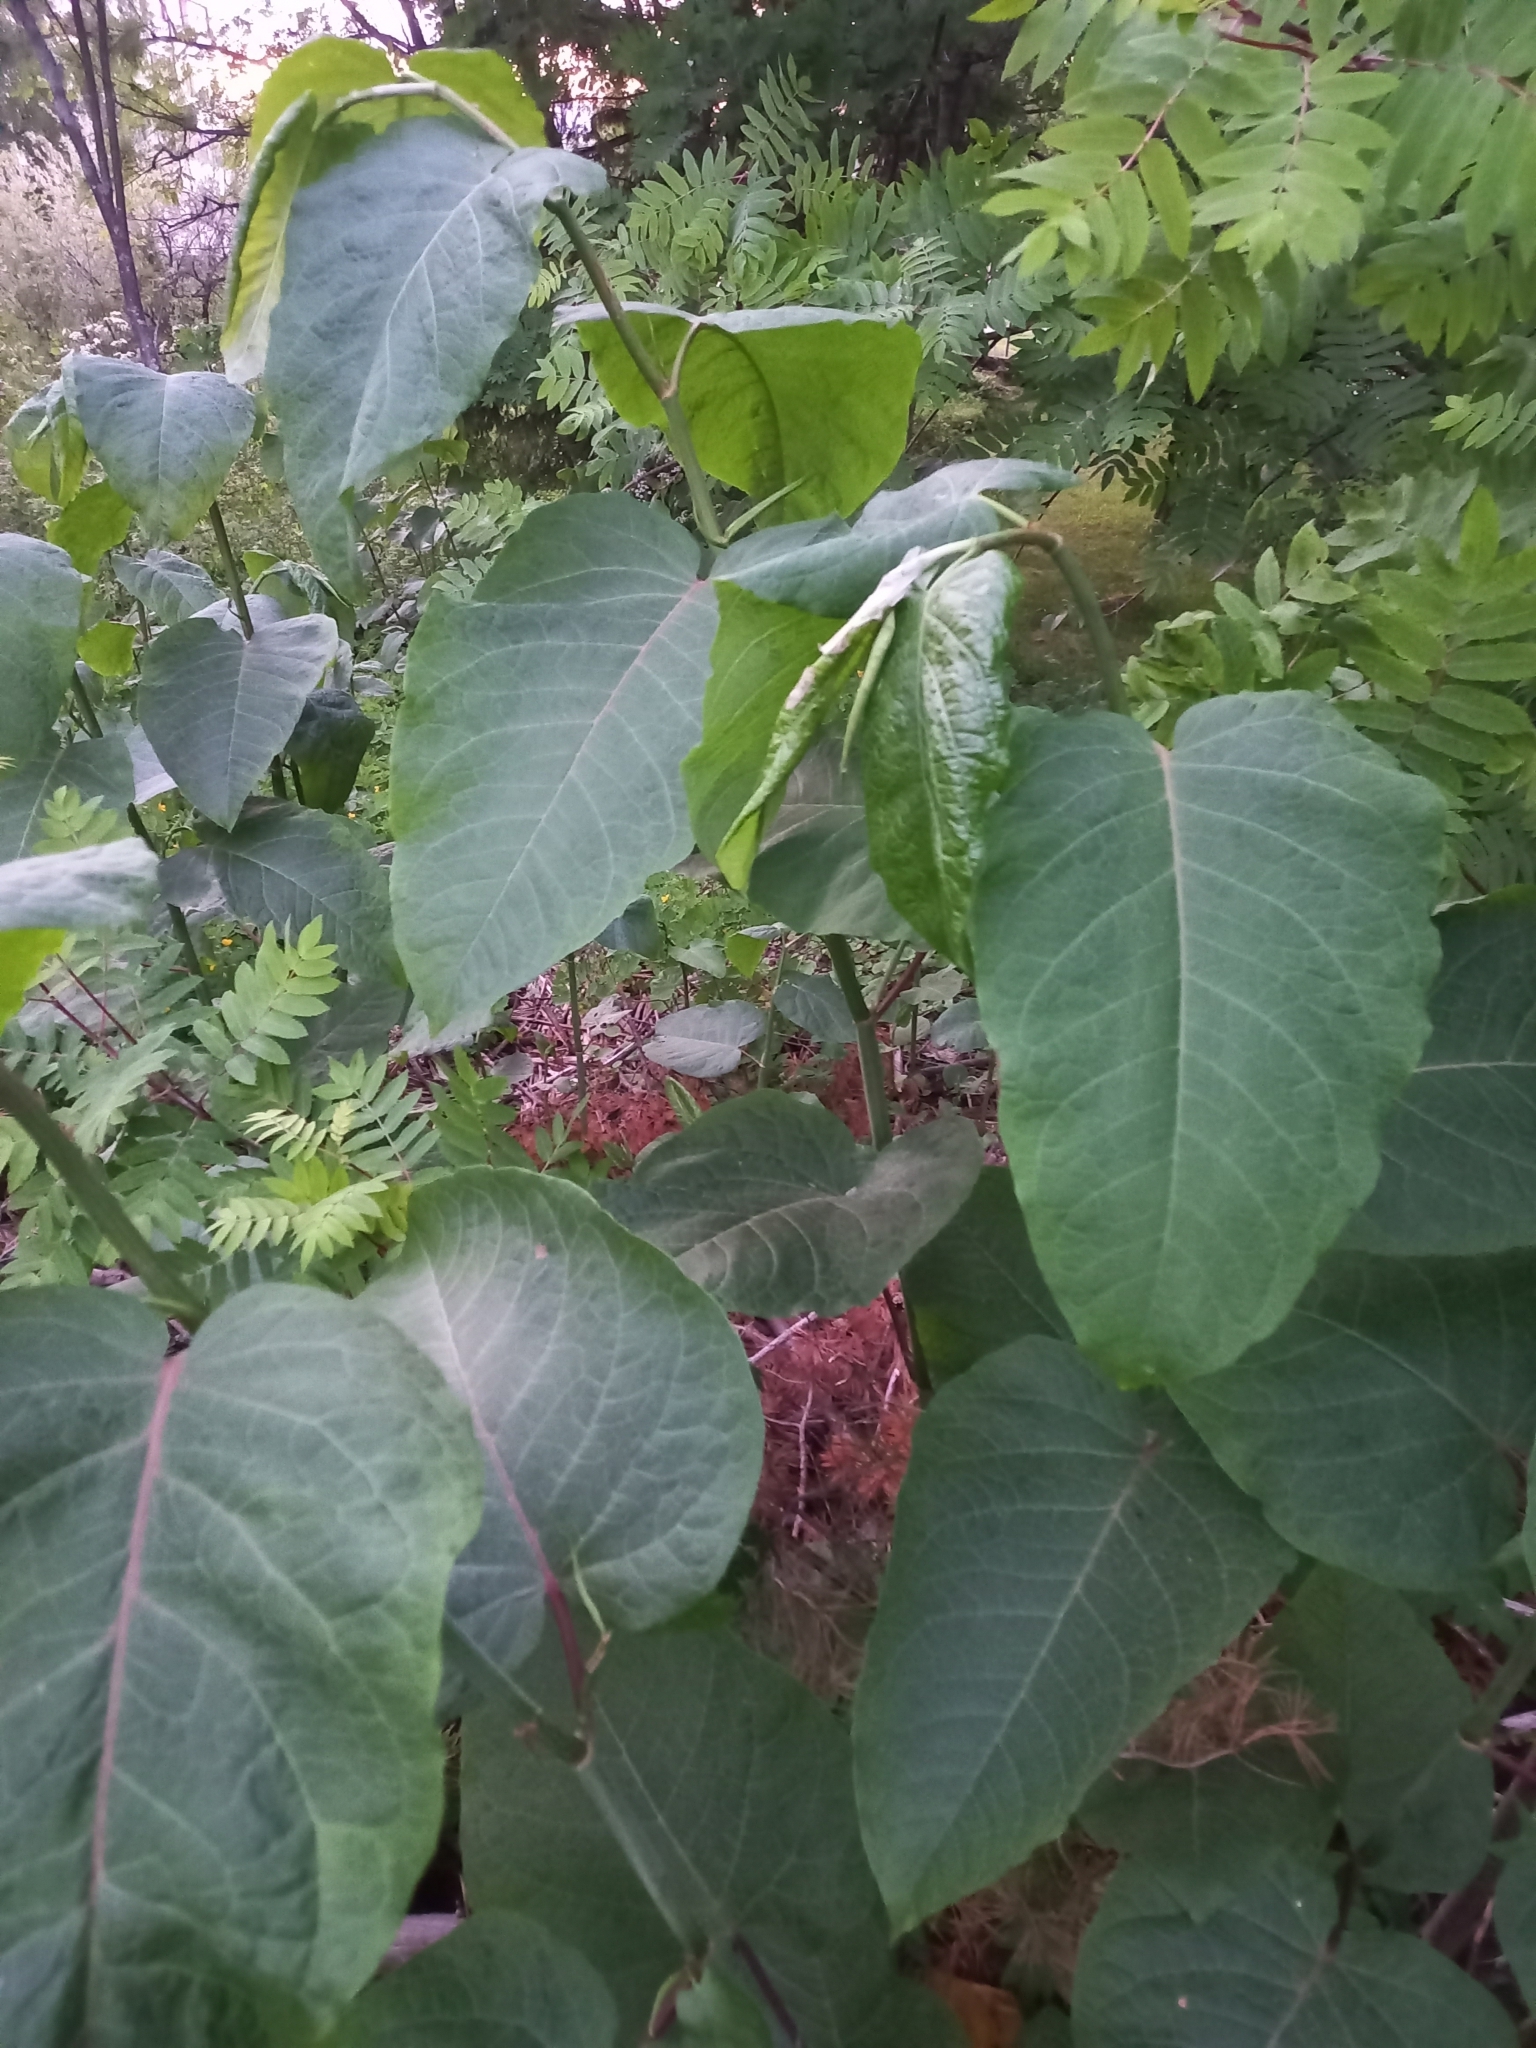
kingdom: Plantae
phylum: Tracheophyta
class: Magnoliopsida
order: Caryophyllales
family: Polygonaceae
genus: Reynoutria
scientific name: Reynoutria sachalinensis
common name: Giant knotweed
